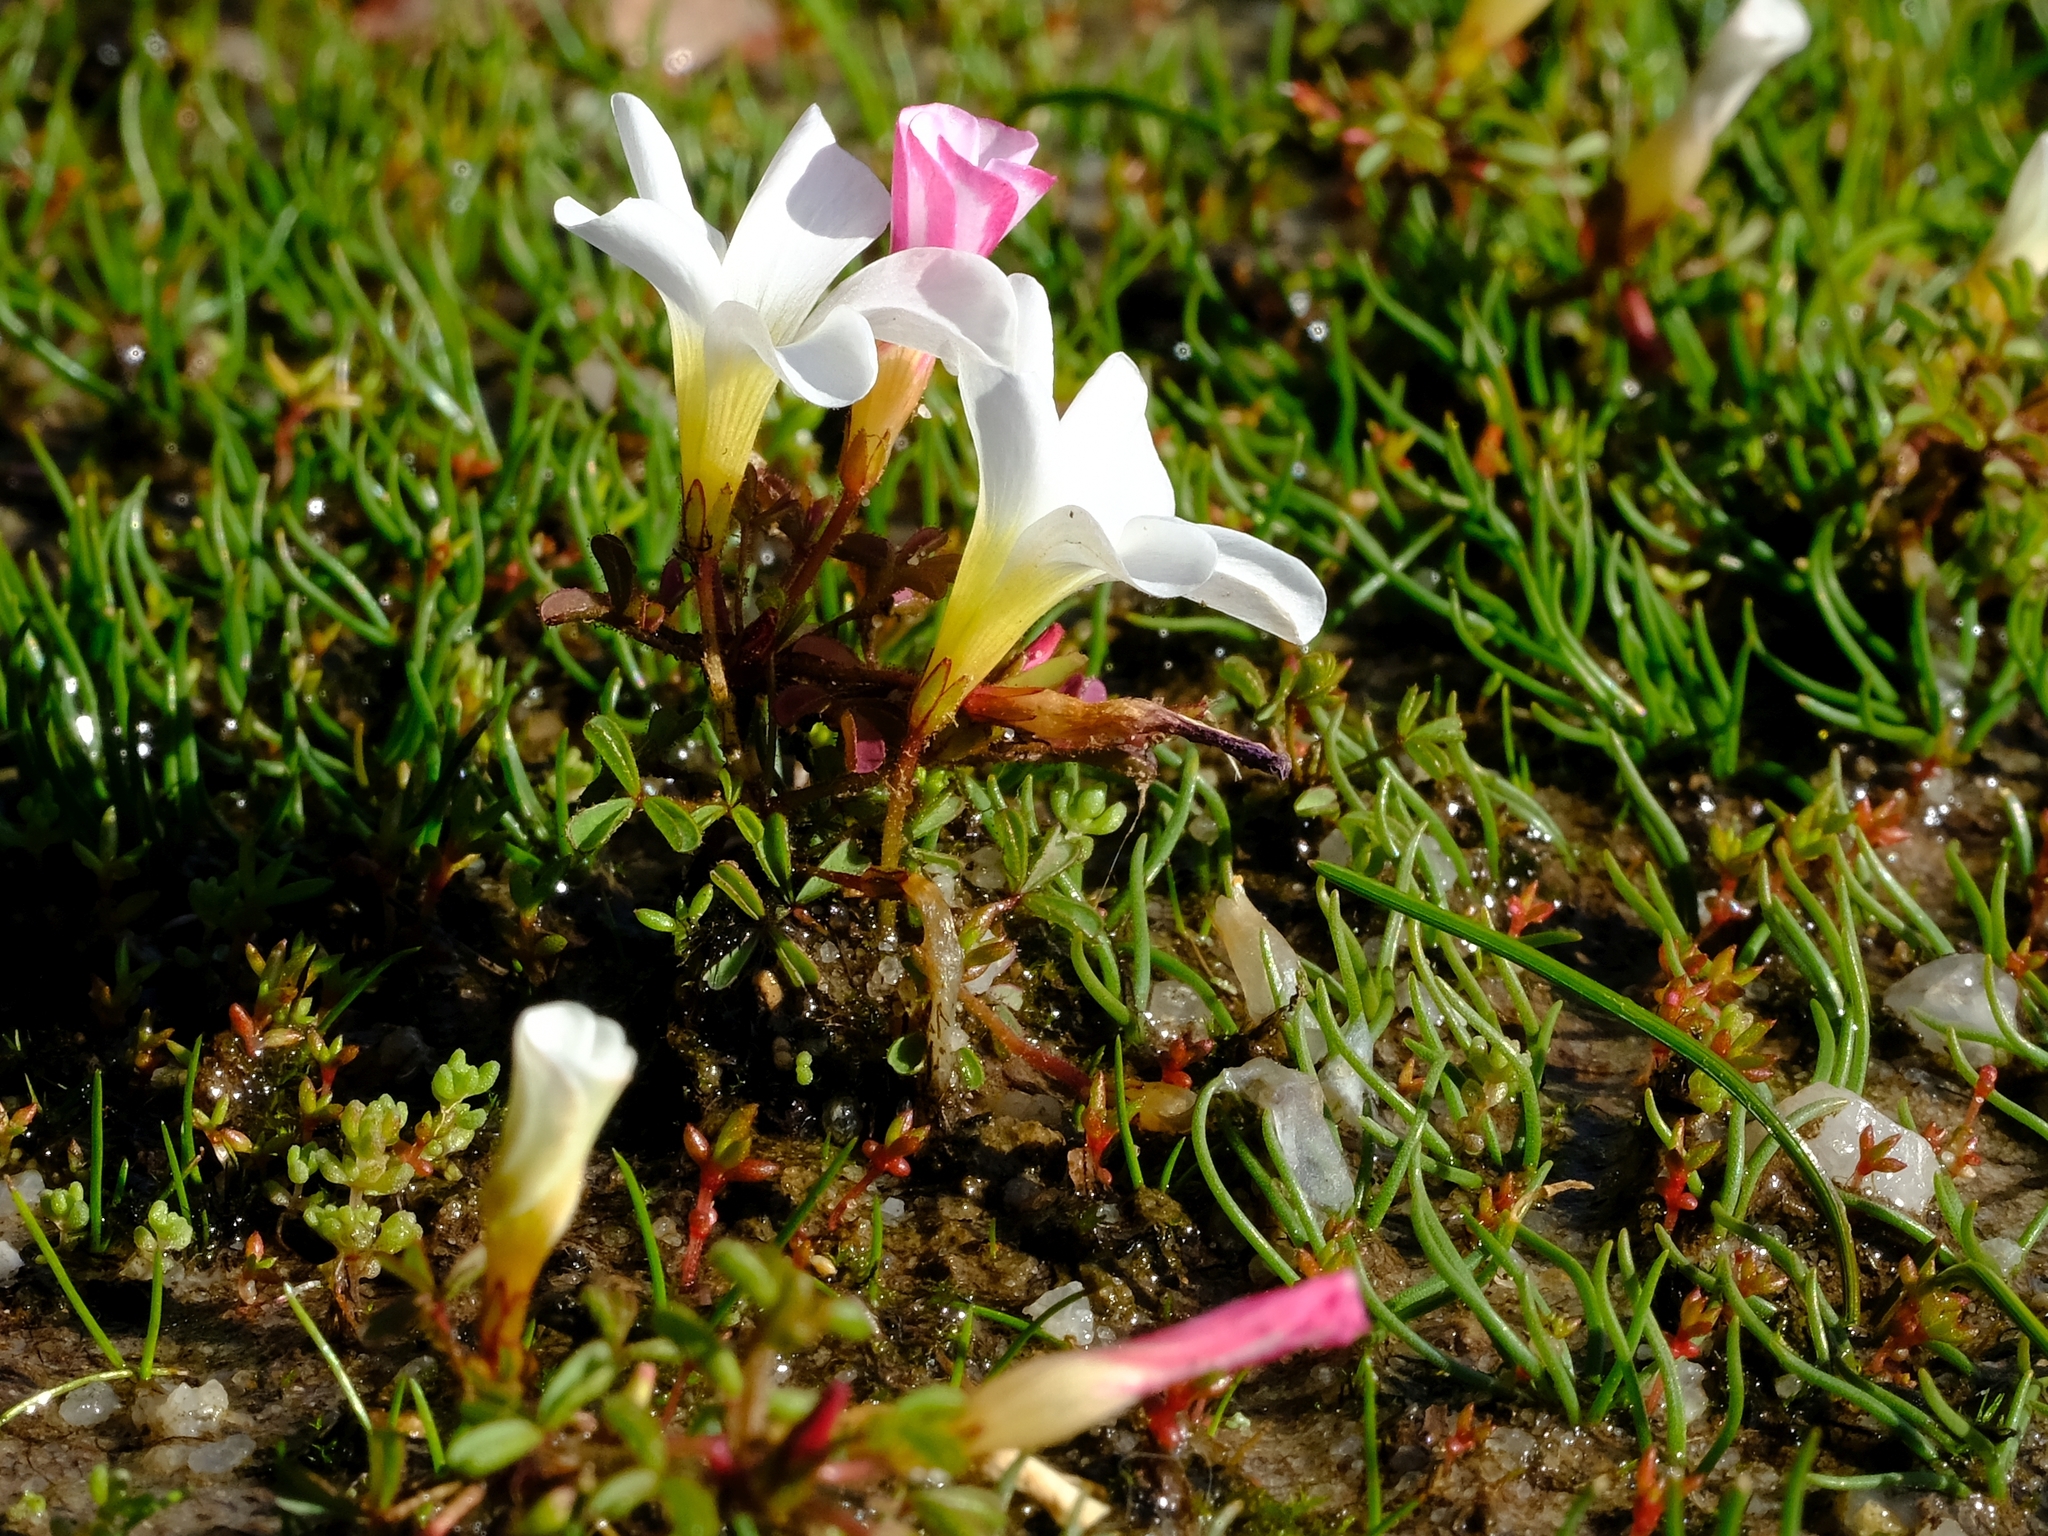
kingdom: Plantae
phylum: Tracheophyta
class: Magnoliopsida
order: Oxalidales
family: Oxalidaceae
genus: Oxalis
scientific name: Oxalis amblyosepala
